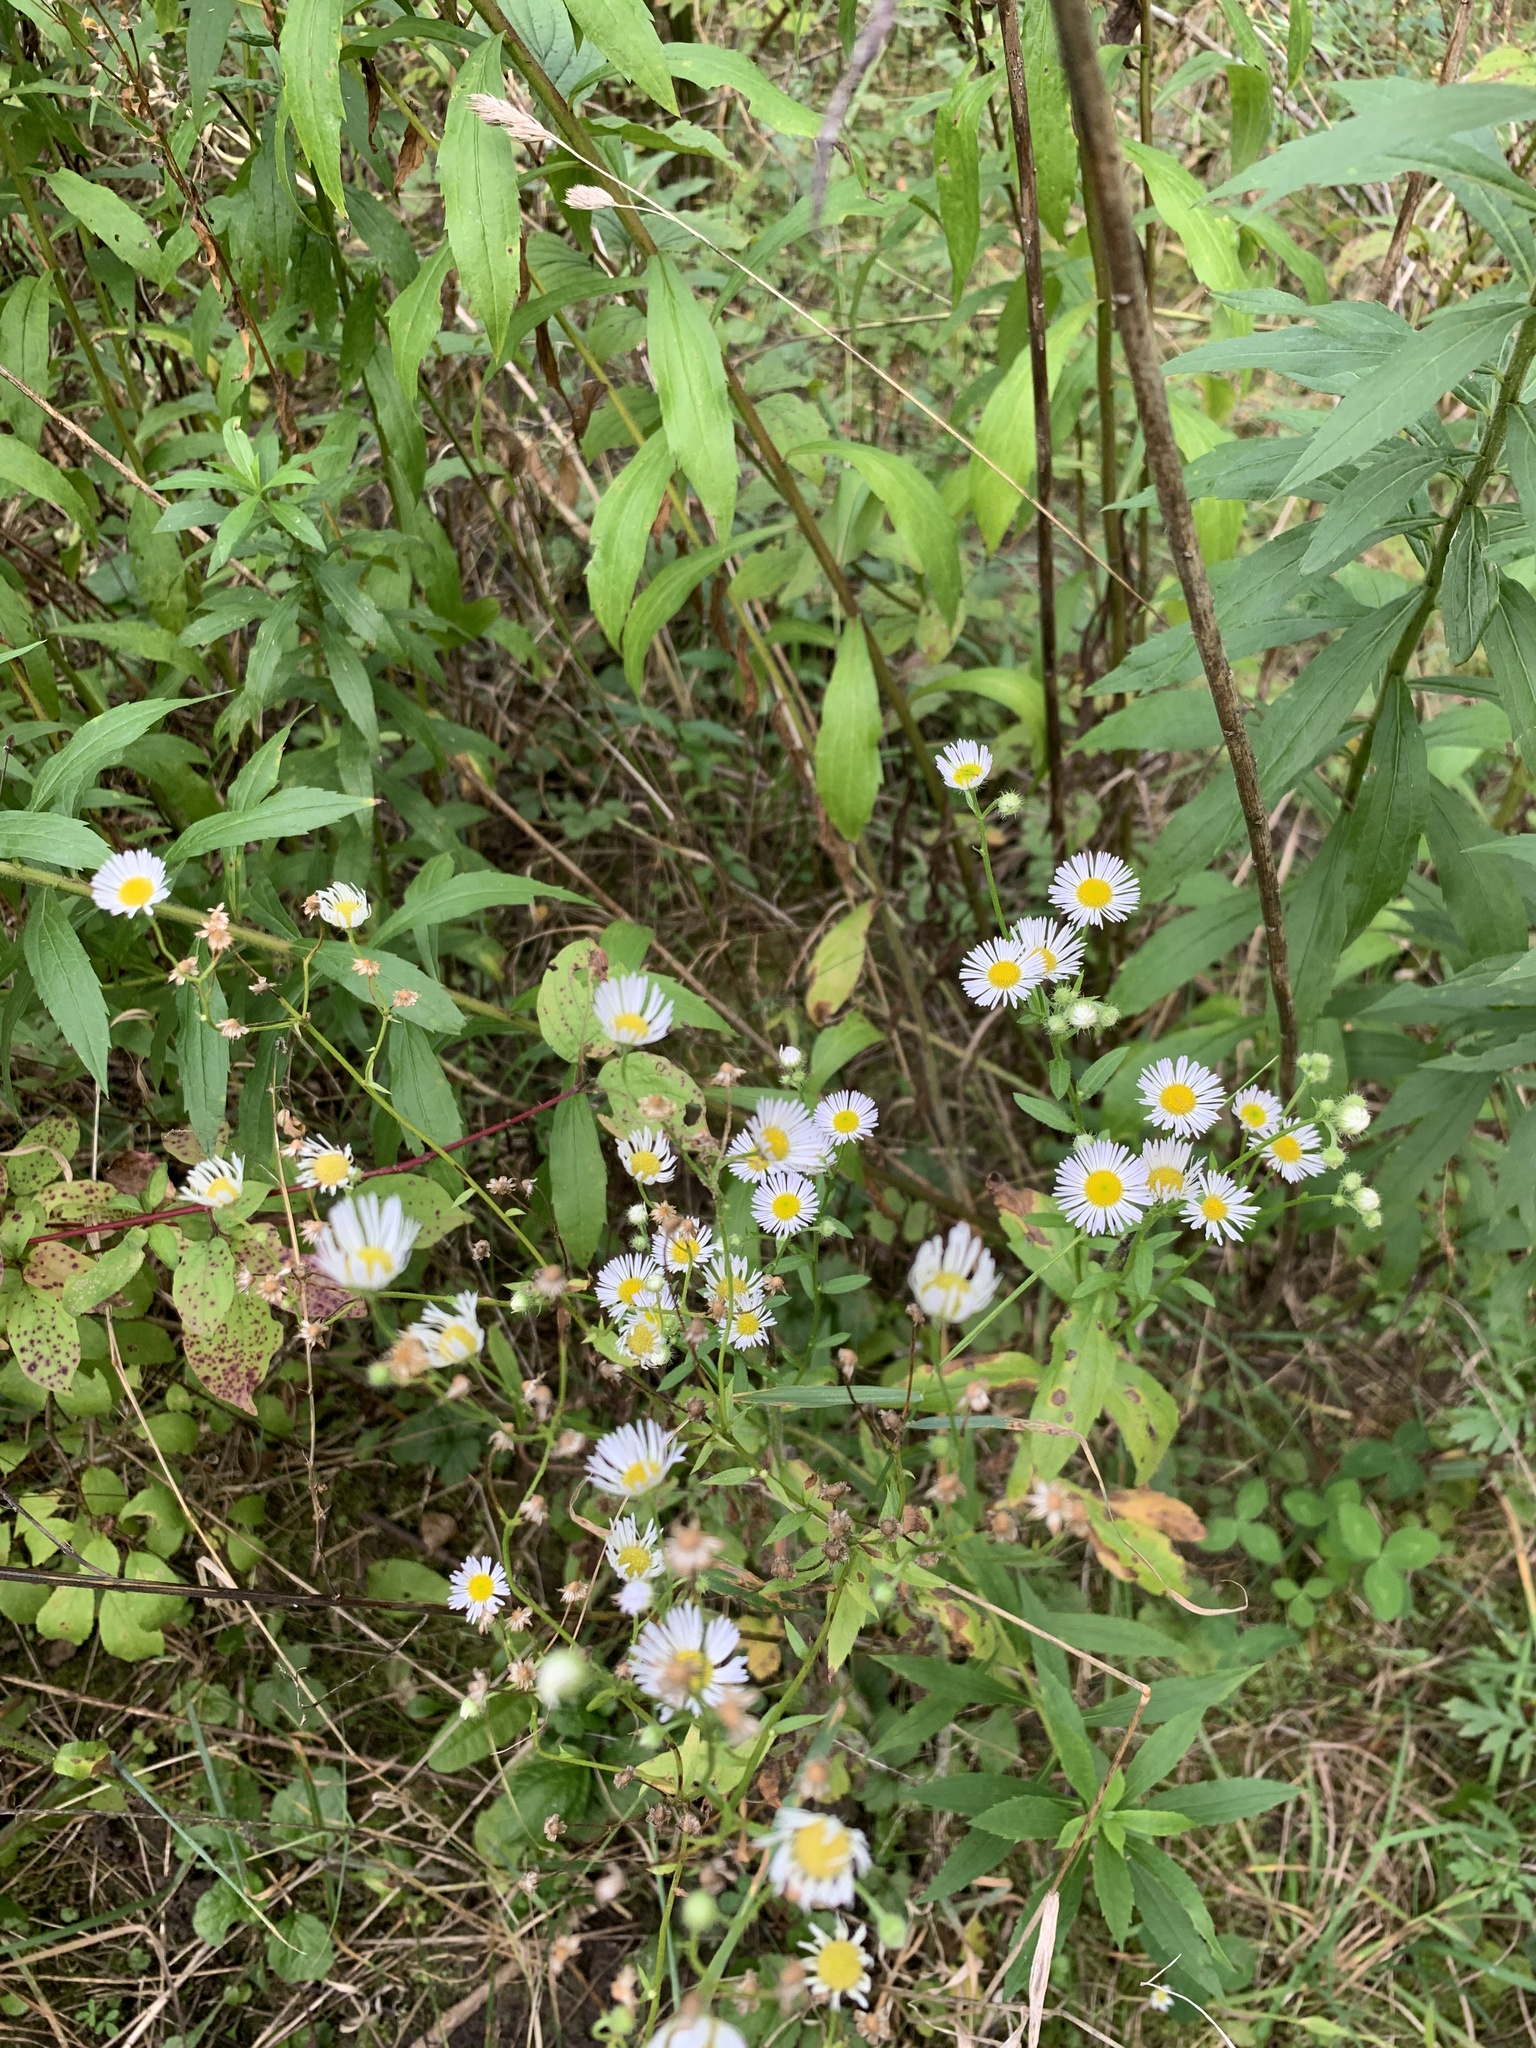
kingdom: Plantae
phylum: Tracheophyta
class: Magnoliopsida
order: Asterales
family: Asteraceae
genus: Erigeron
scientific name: Erigeron annuus
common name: Tall fleabane
